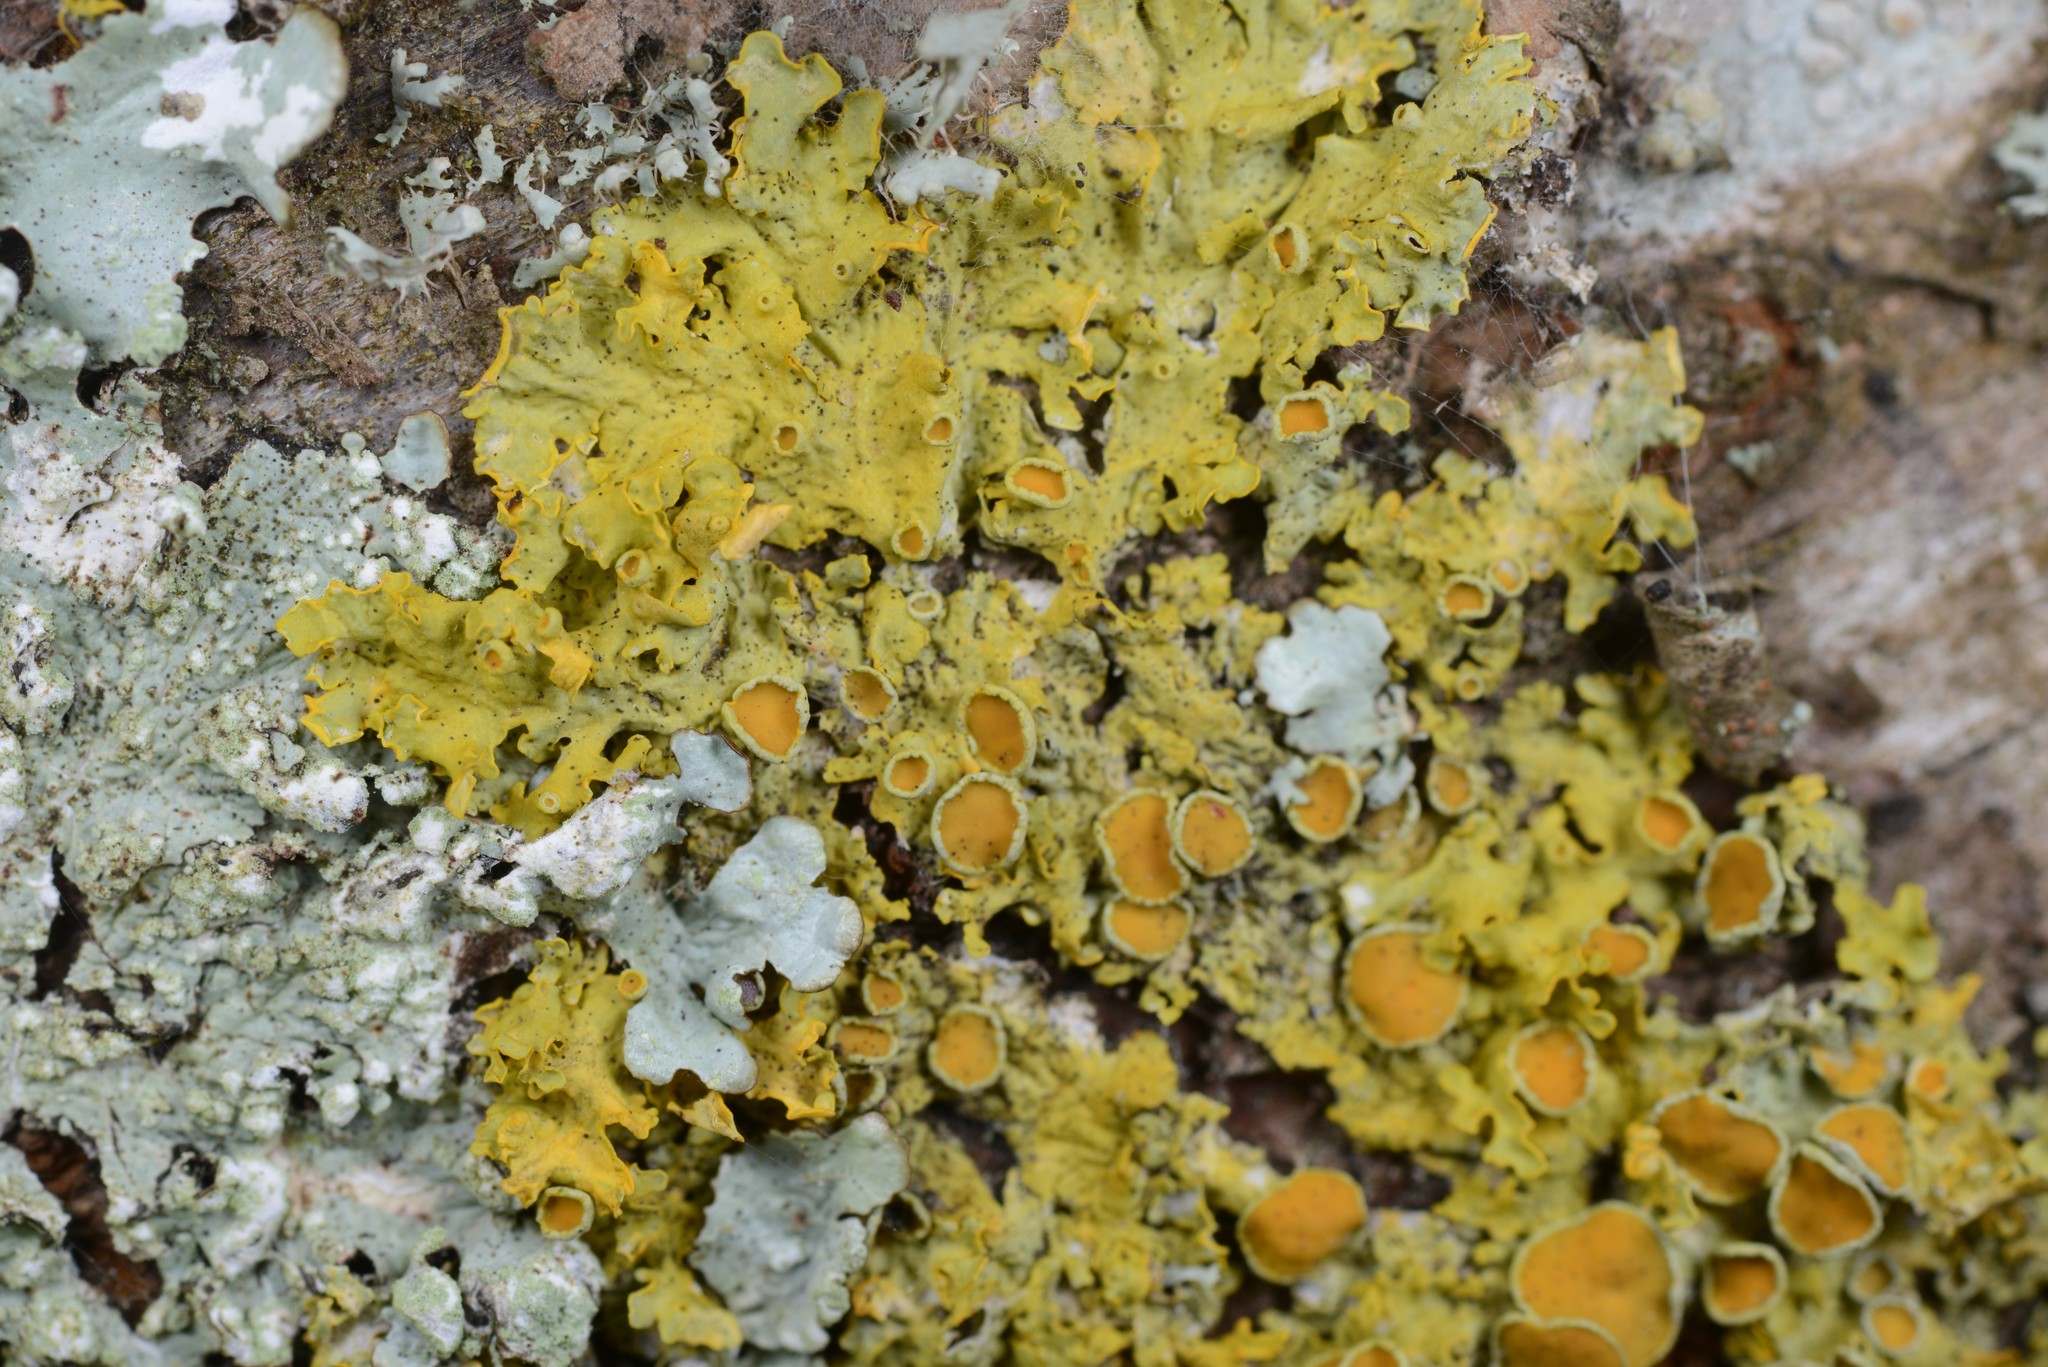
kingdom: Fungi
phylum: Ascomycota
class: Lecanoromycetes
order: Teloschistales
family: Teloschistaceae
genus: Xanthoria
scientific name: Xanthoria parietina
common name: Common orange lichen
